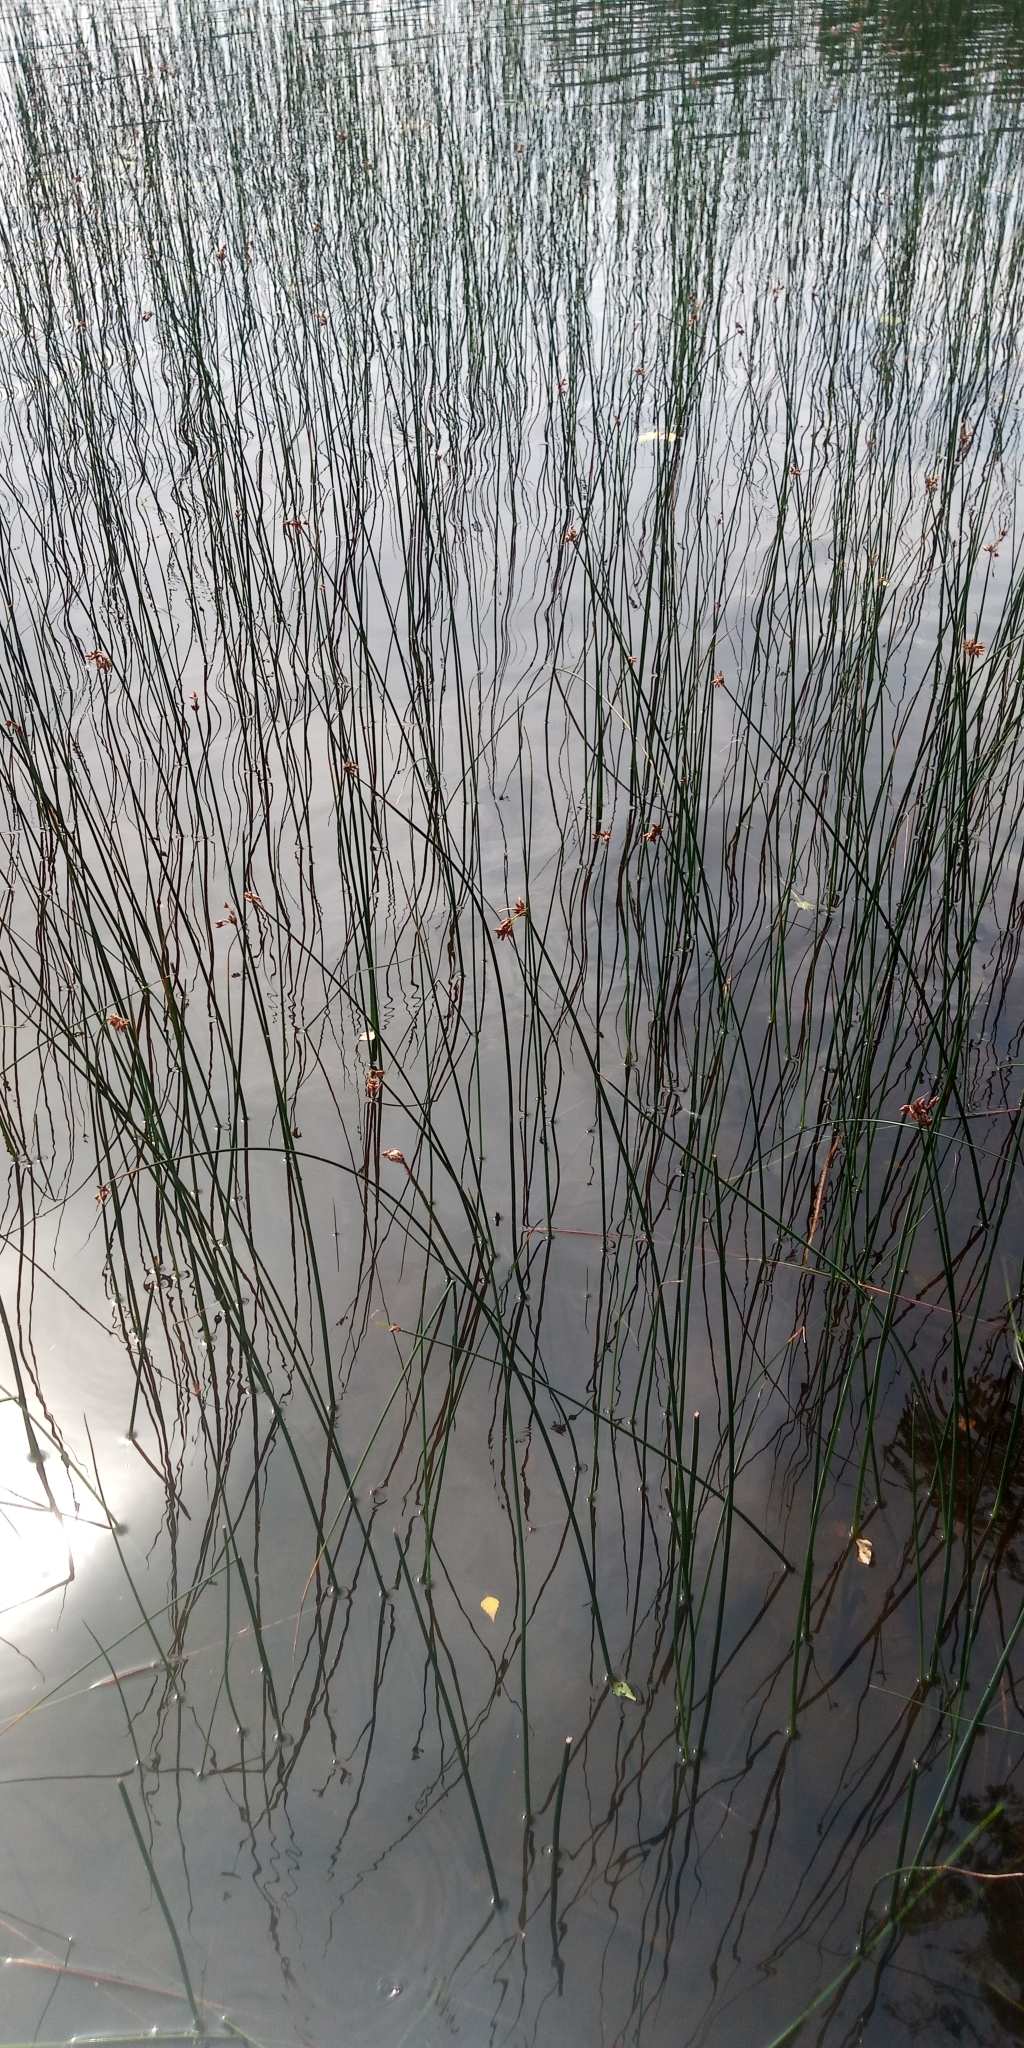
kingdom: Plantae
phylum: Tracheophyta
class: Liliopsida
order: Poales
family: Cyperaceae
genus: Schoenoplectus
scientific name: Schoenoplectus lacustris
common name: Common club-rush
